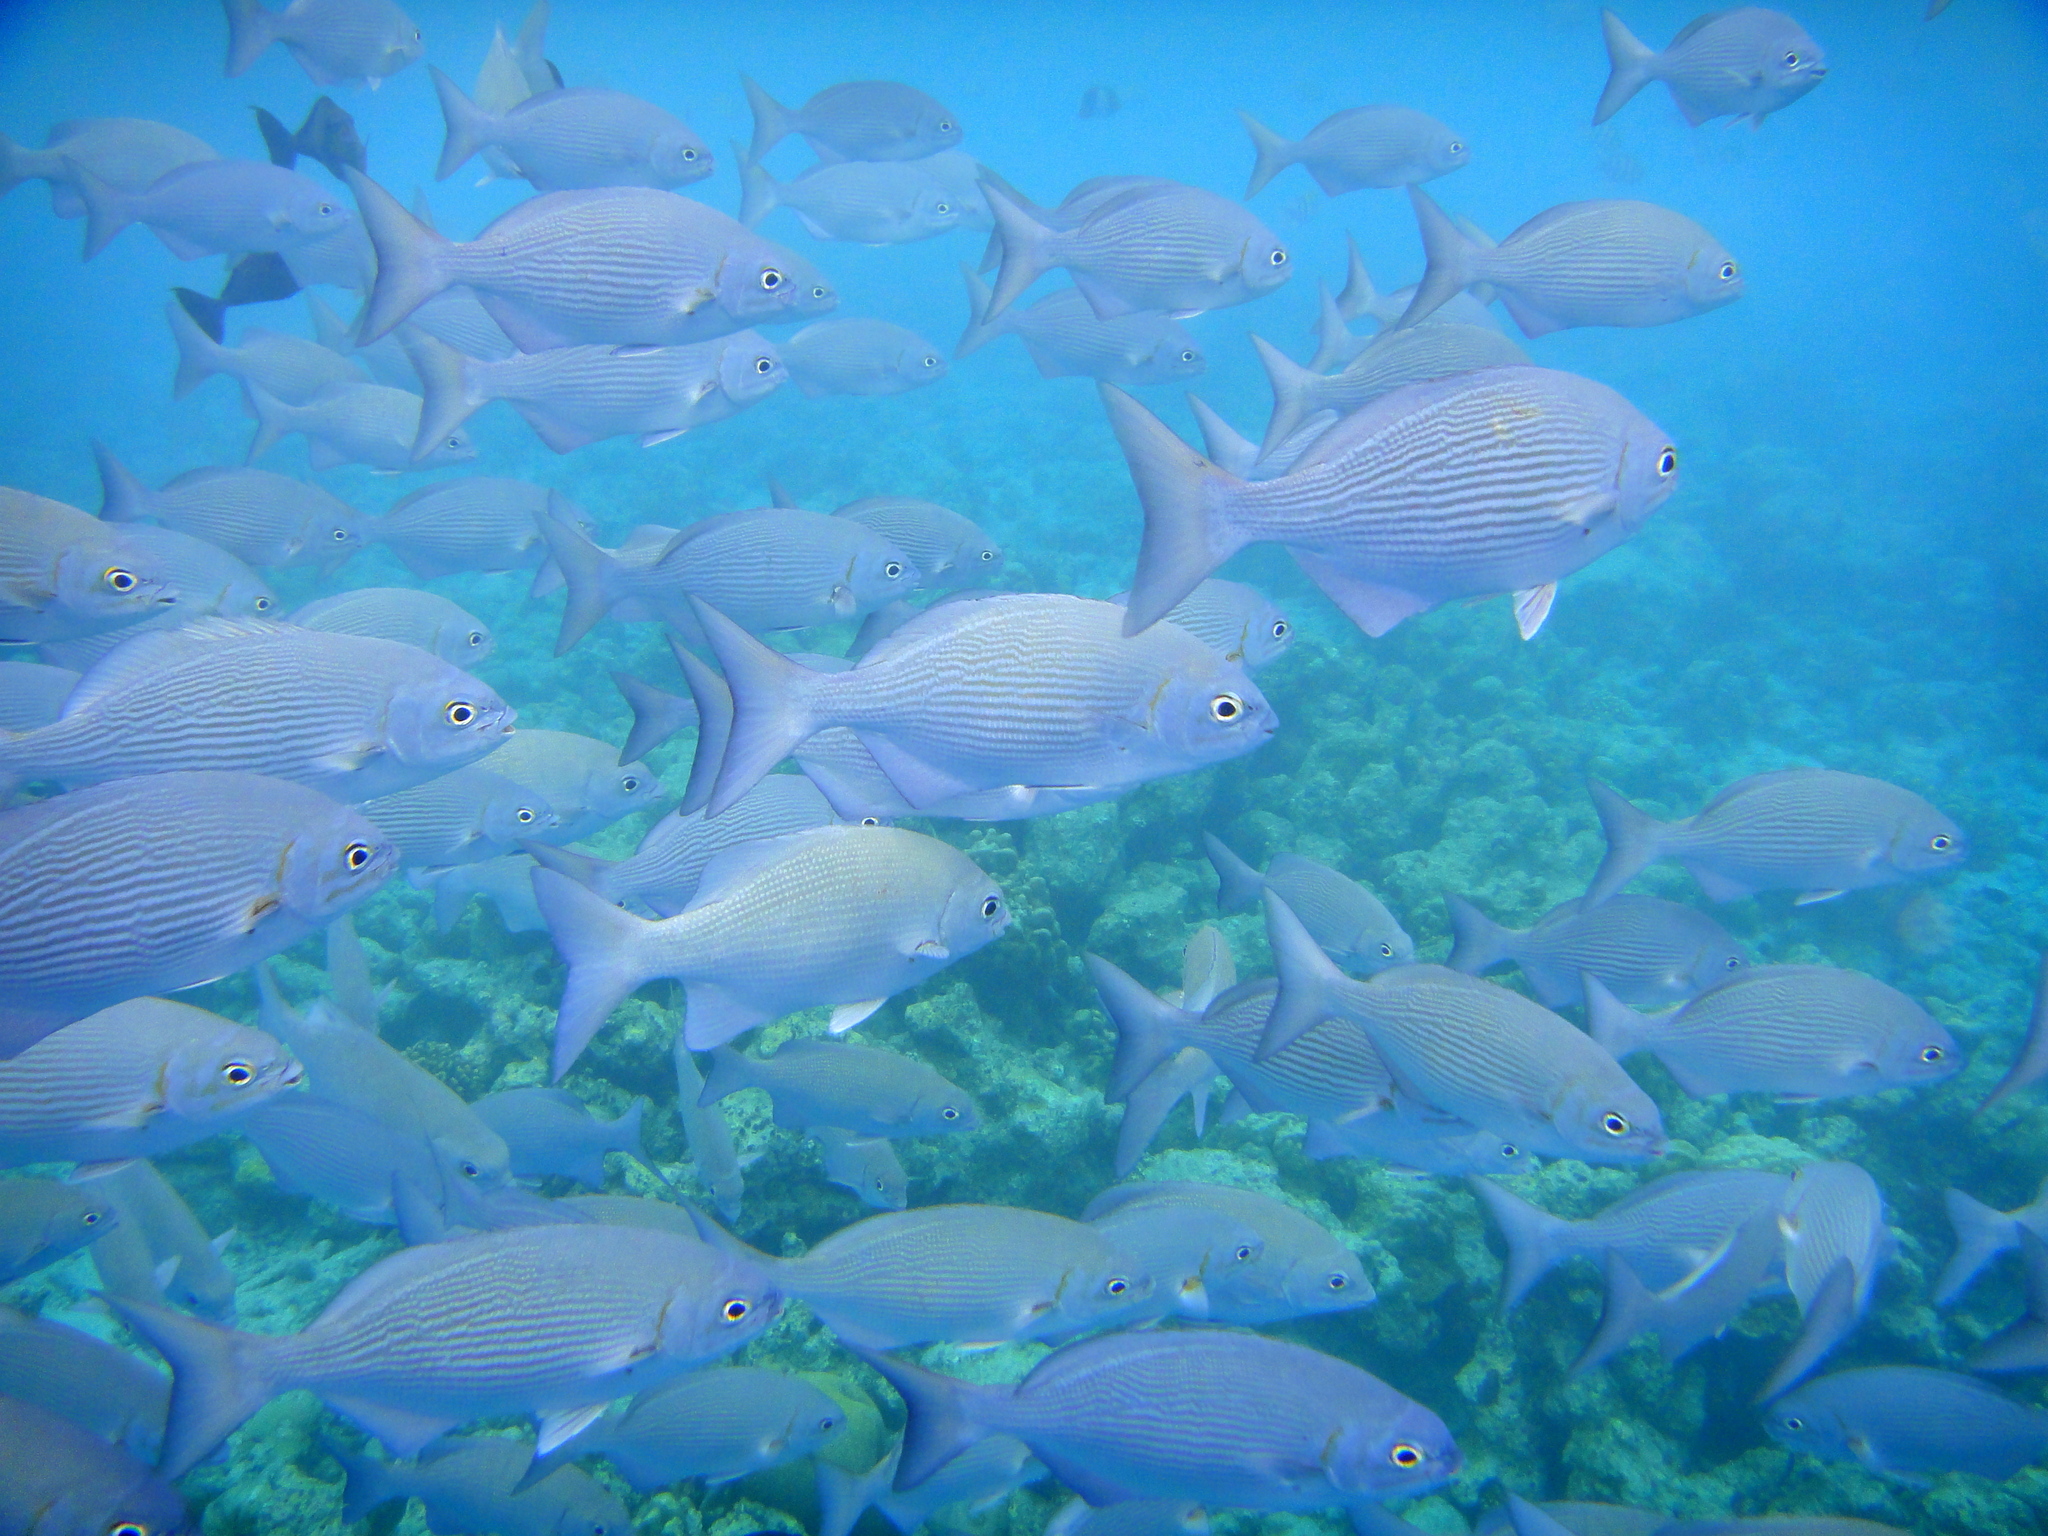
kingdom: Animalia
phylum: Chordata
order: Perciformes
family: Kyphosidae
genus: Kyphosus
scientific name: Kyphosus vaigiensis
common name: Brassy chub
